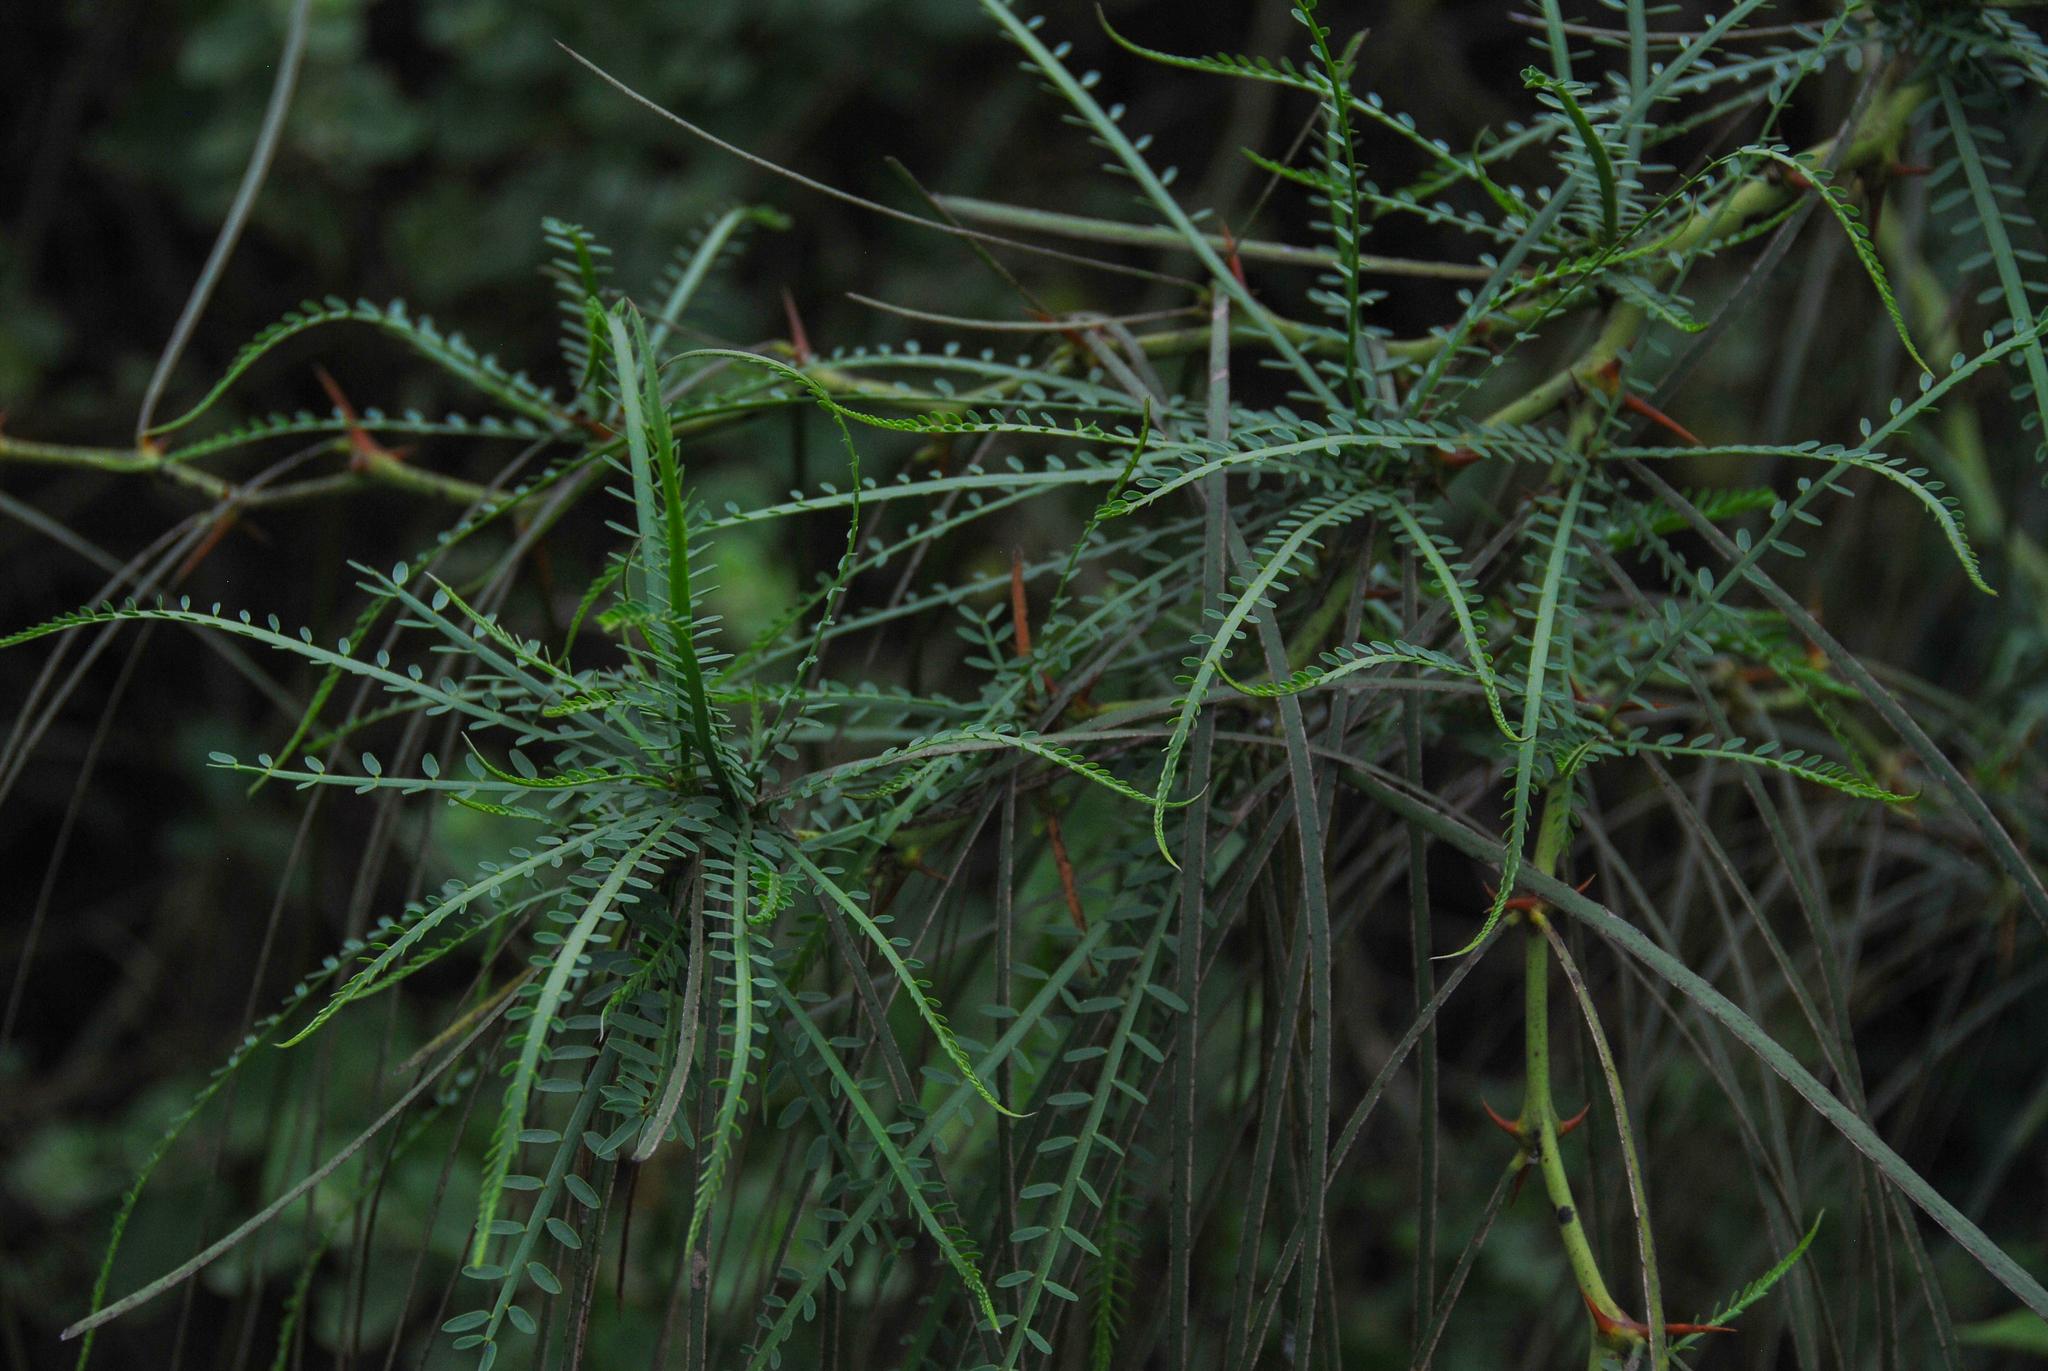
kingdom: Plantae
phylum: Tracheophyta
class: Magnoliopsida
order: Fabales
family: Fabaceae
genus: Parkinsonia
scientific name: Parkinsonia aculeata
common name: Jerusalem thorn
